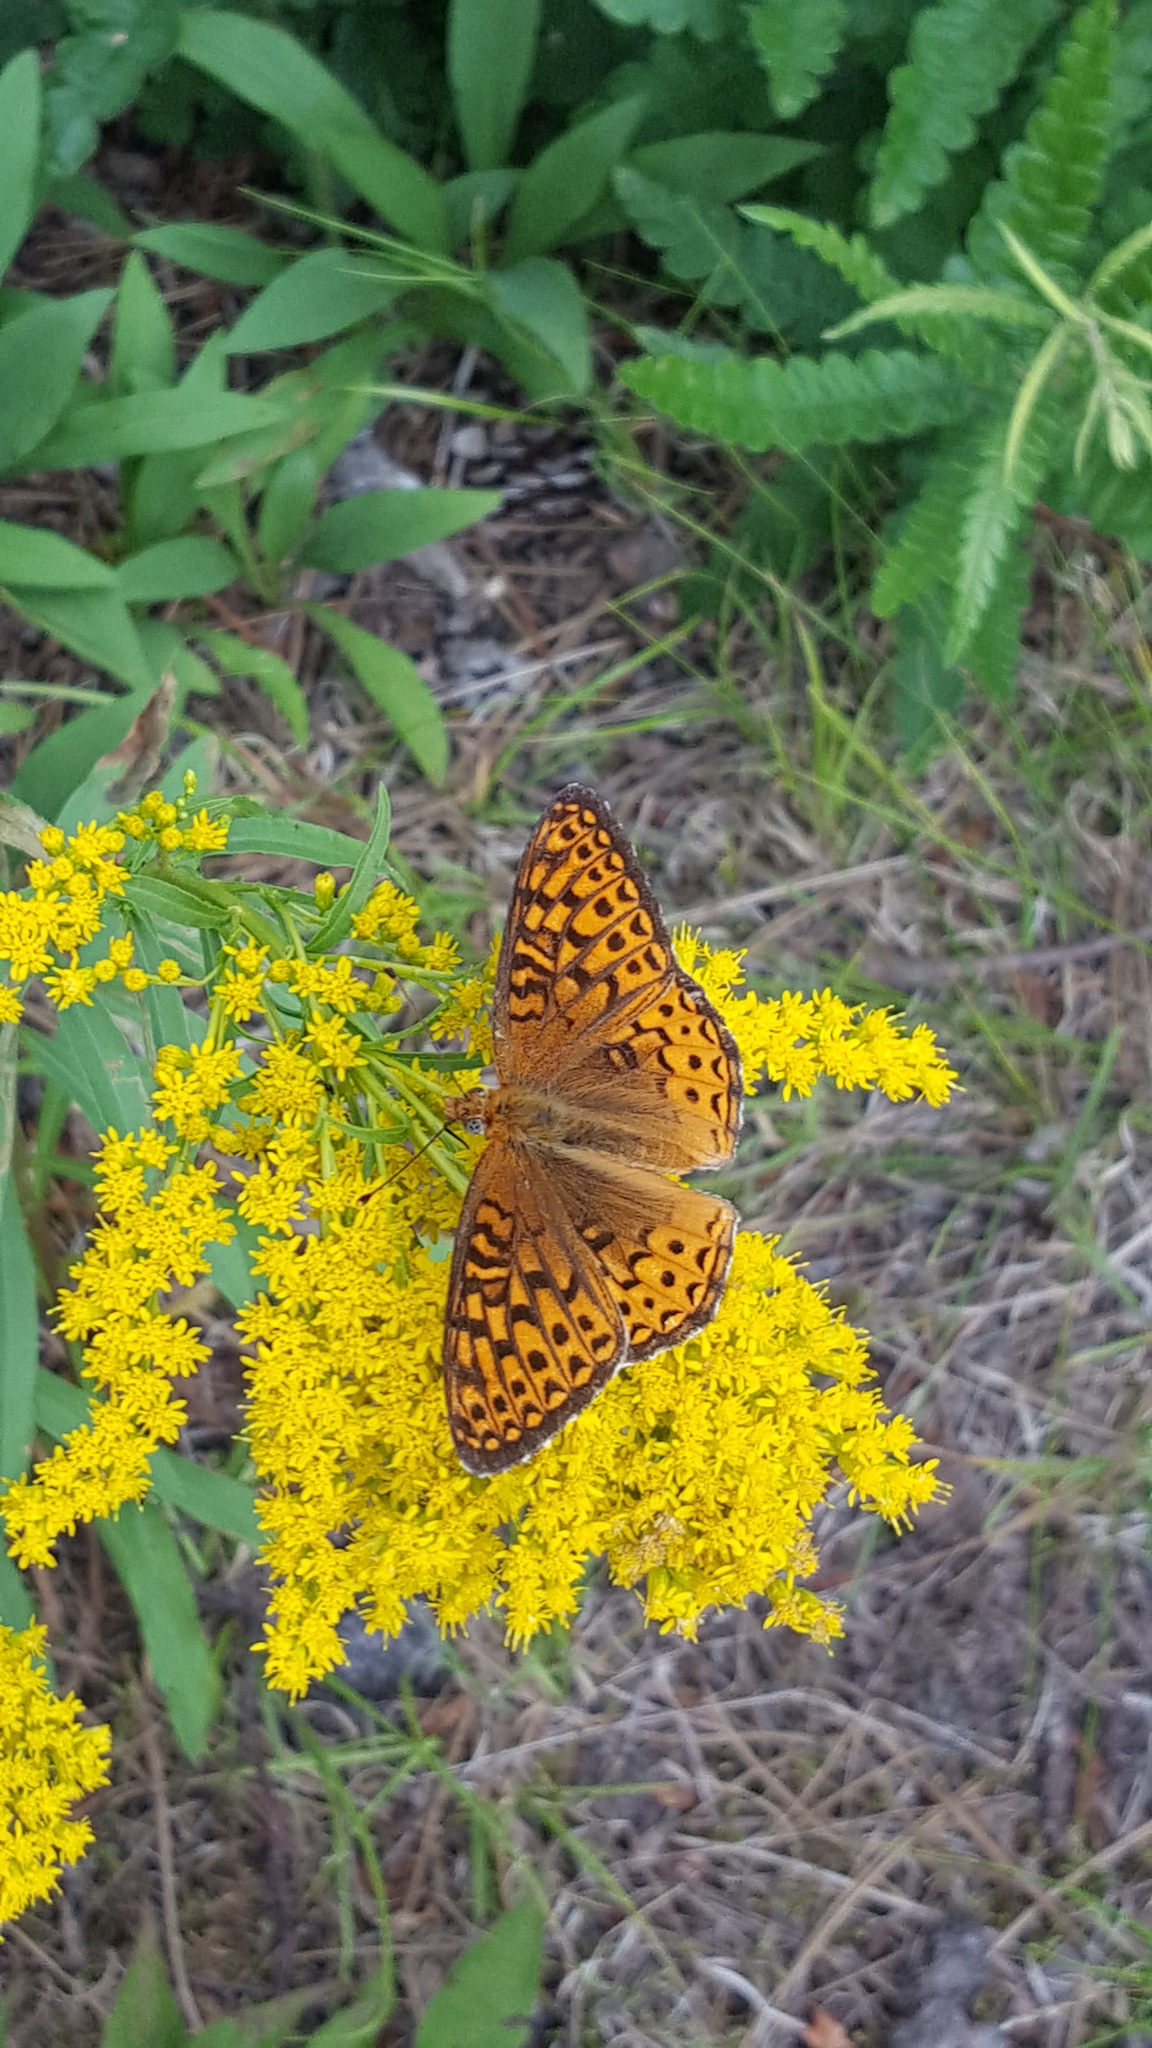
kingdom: Animalia
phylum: Arthropoda
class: Insecta
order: Lepidoptera
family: Nymphalidae
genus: Speyeria
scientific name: Speyeria atlantis
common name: Atlantis fritillary
